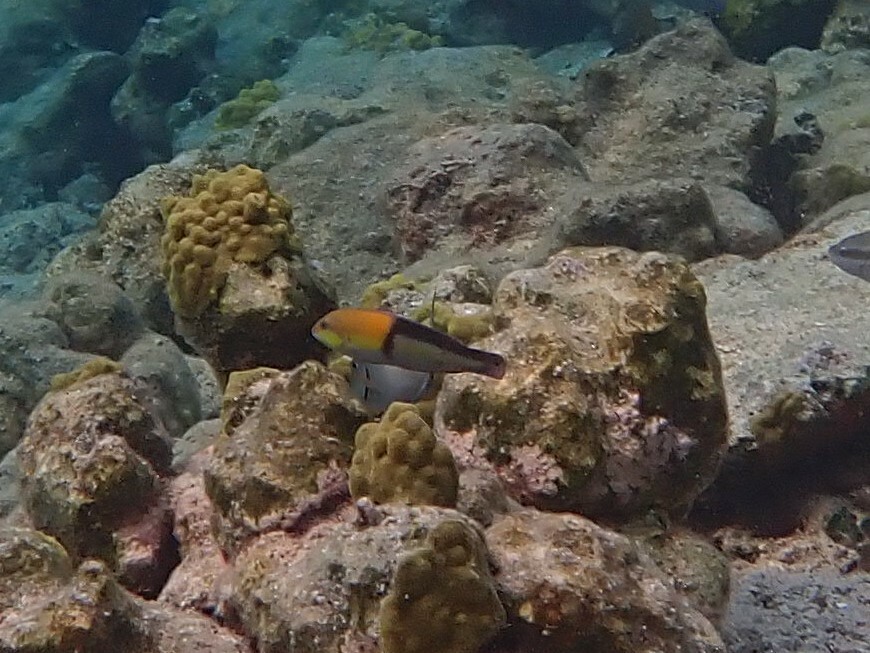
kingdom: Animalia
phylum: Chordata
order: Perciformes
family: Labridae
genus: Halichoeres
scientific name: Halichoeres garnoti
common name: Yellowhead wrasse
